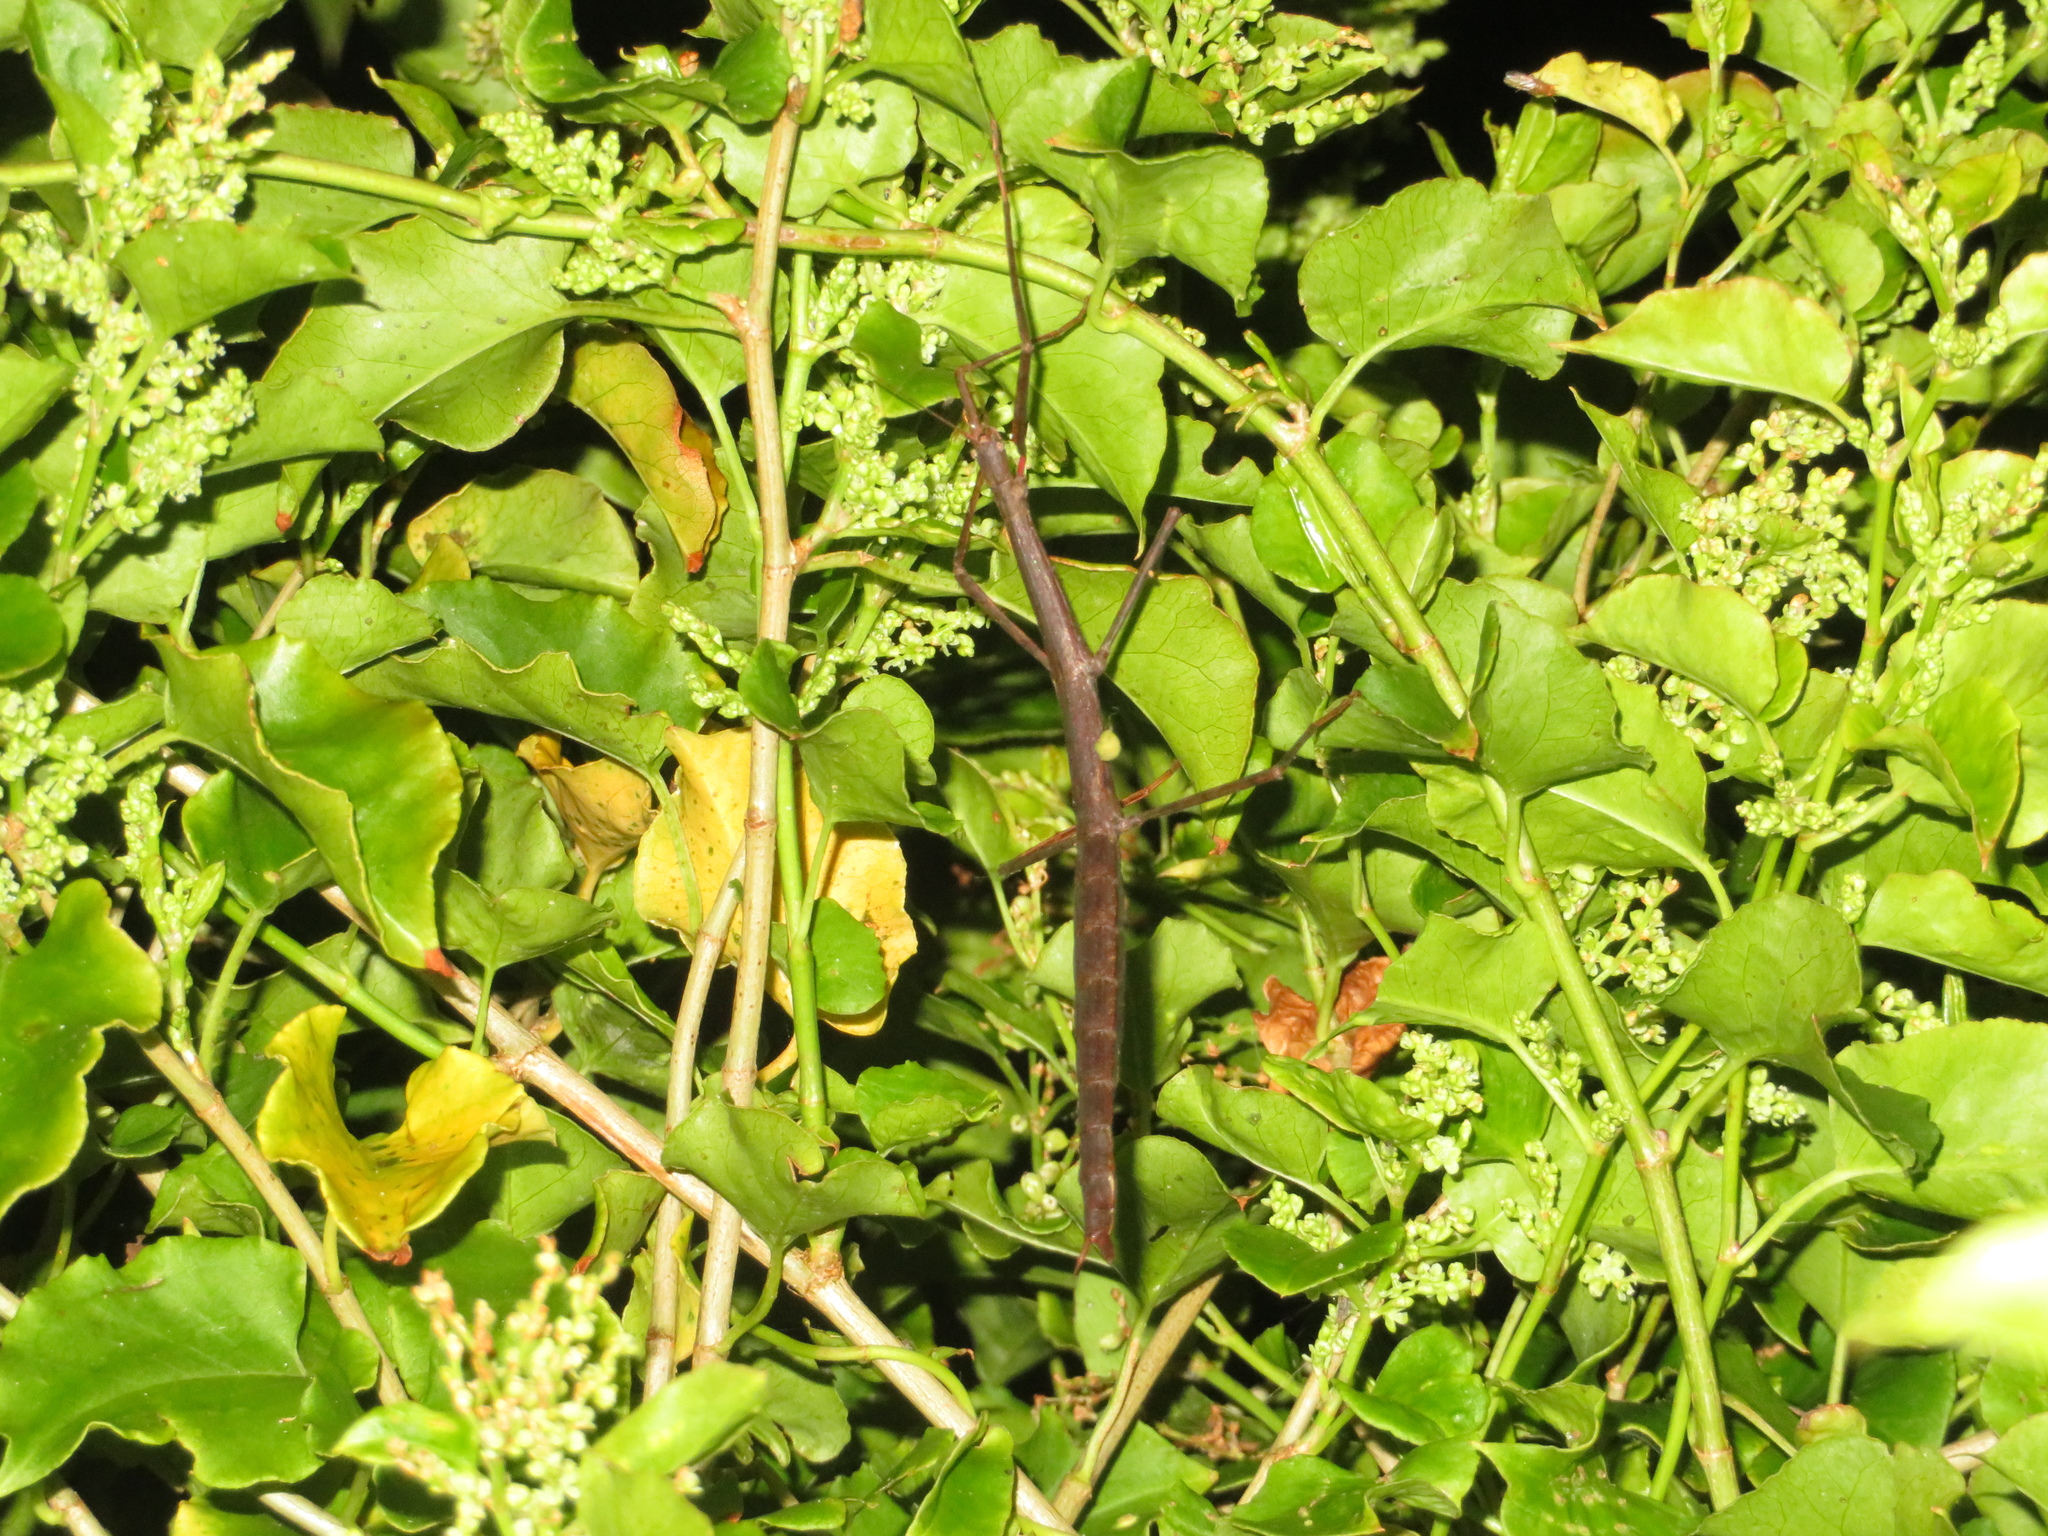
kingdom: Animalia
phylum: Arthropoda
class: Insecta
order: Phasmida
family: Phasmatidae
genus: Clitarchus
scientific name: Clitarchus hookeri
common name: Smooth stick insect
